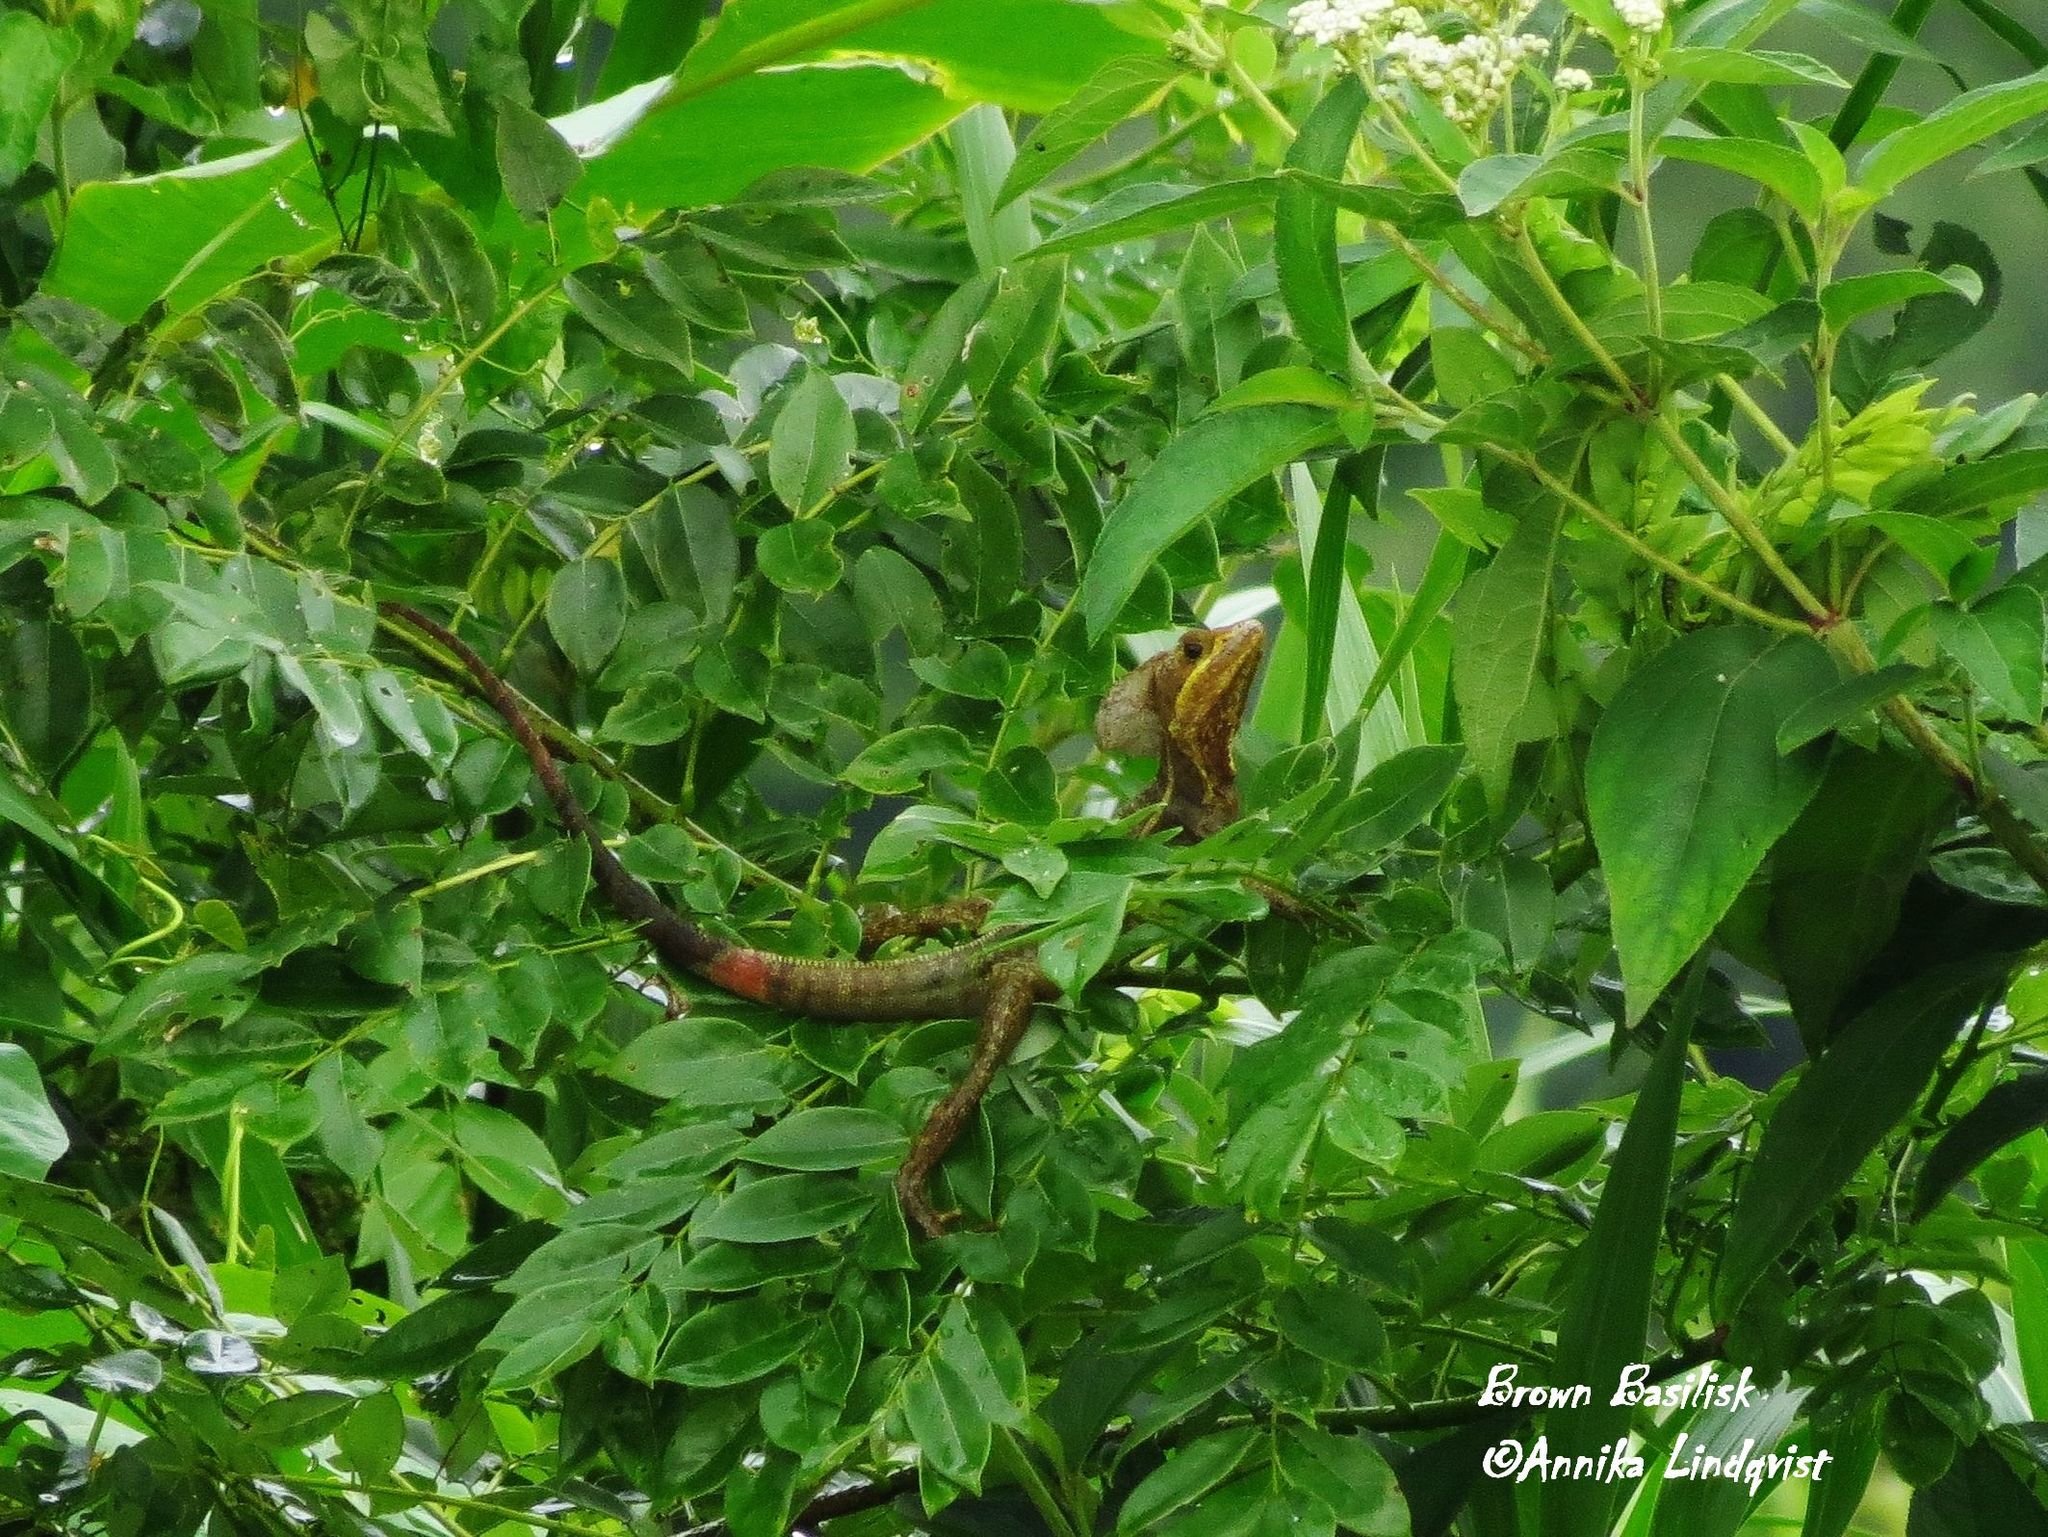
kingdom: Animalia
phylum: Chordata
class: Squamata
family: Corytophanidae
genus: Basiliscus
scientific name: Basiliscus vittatus
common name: Brown basilisk
